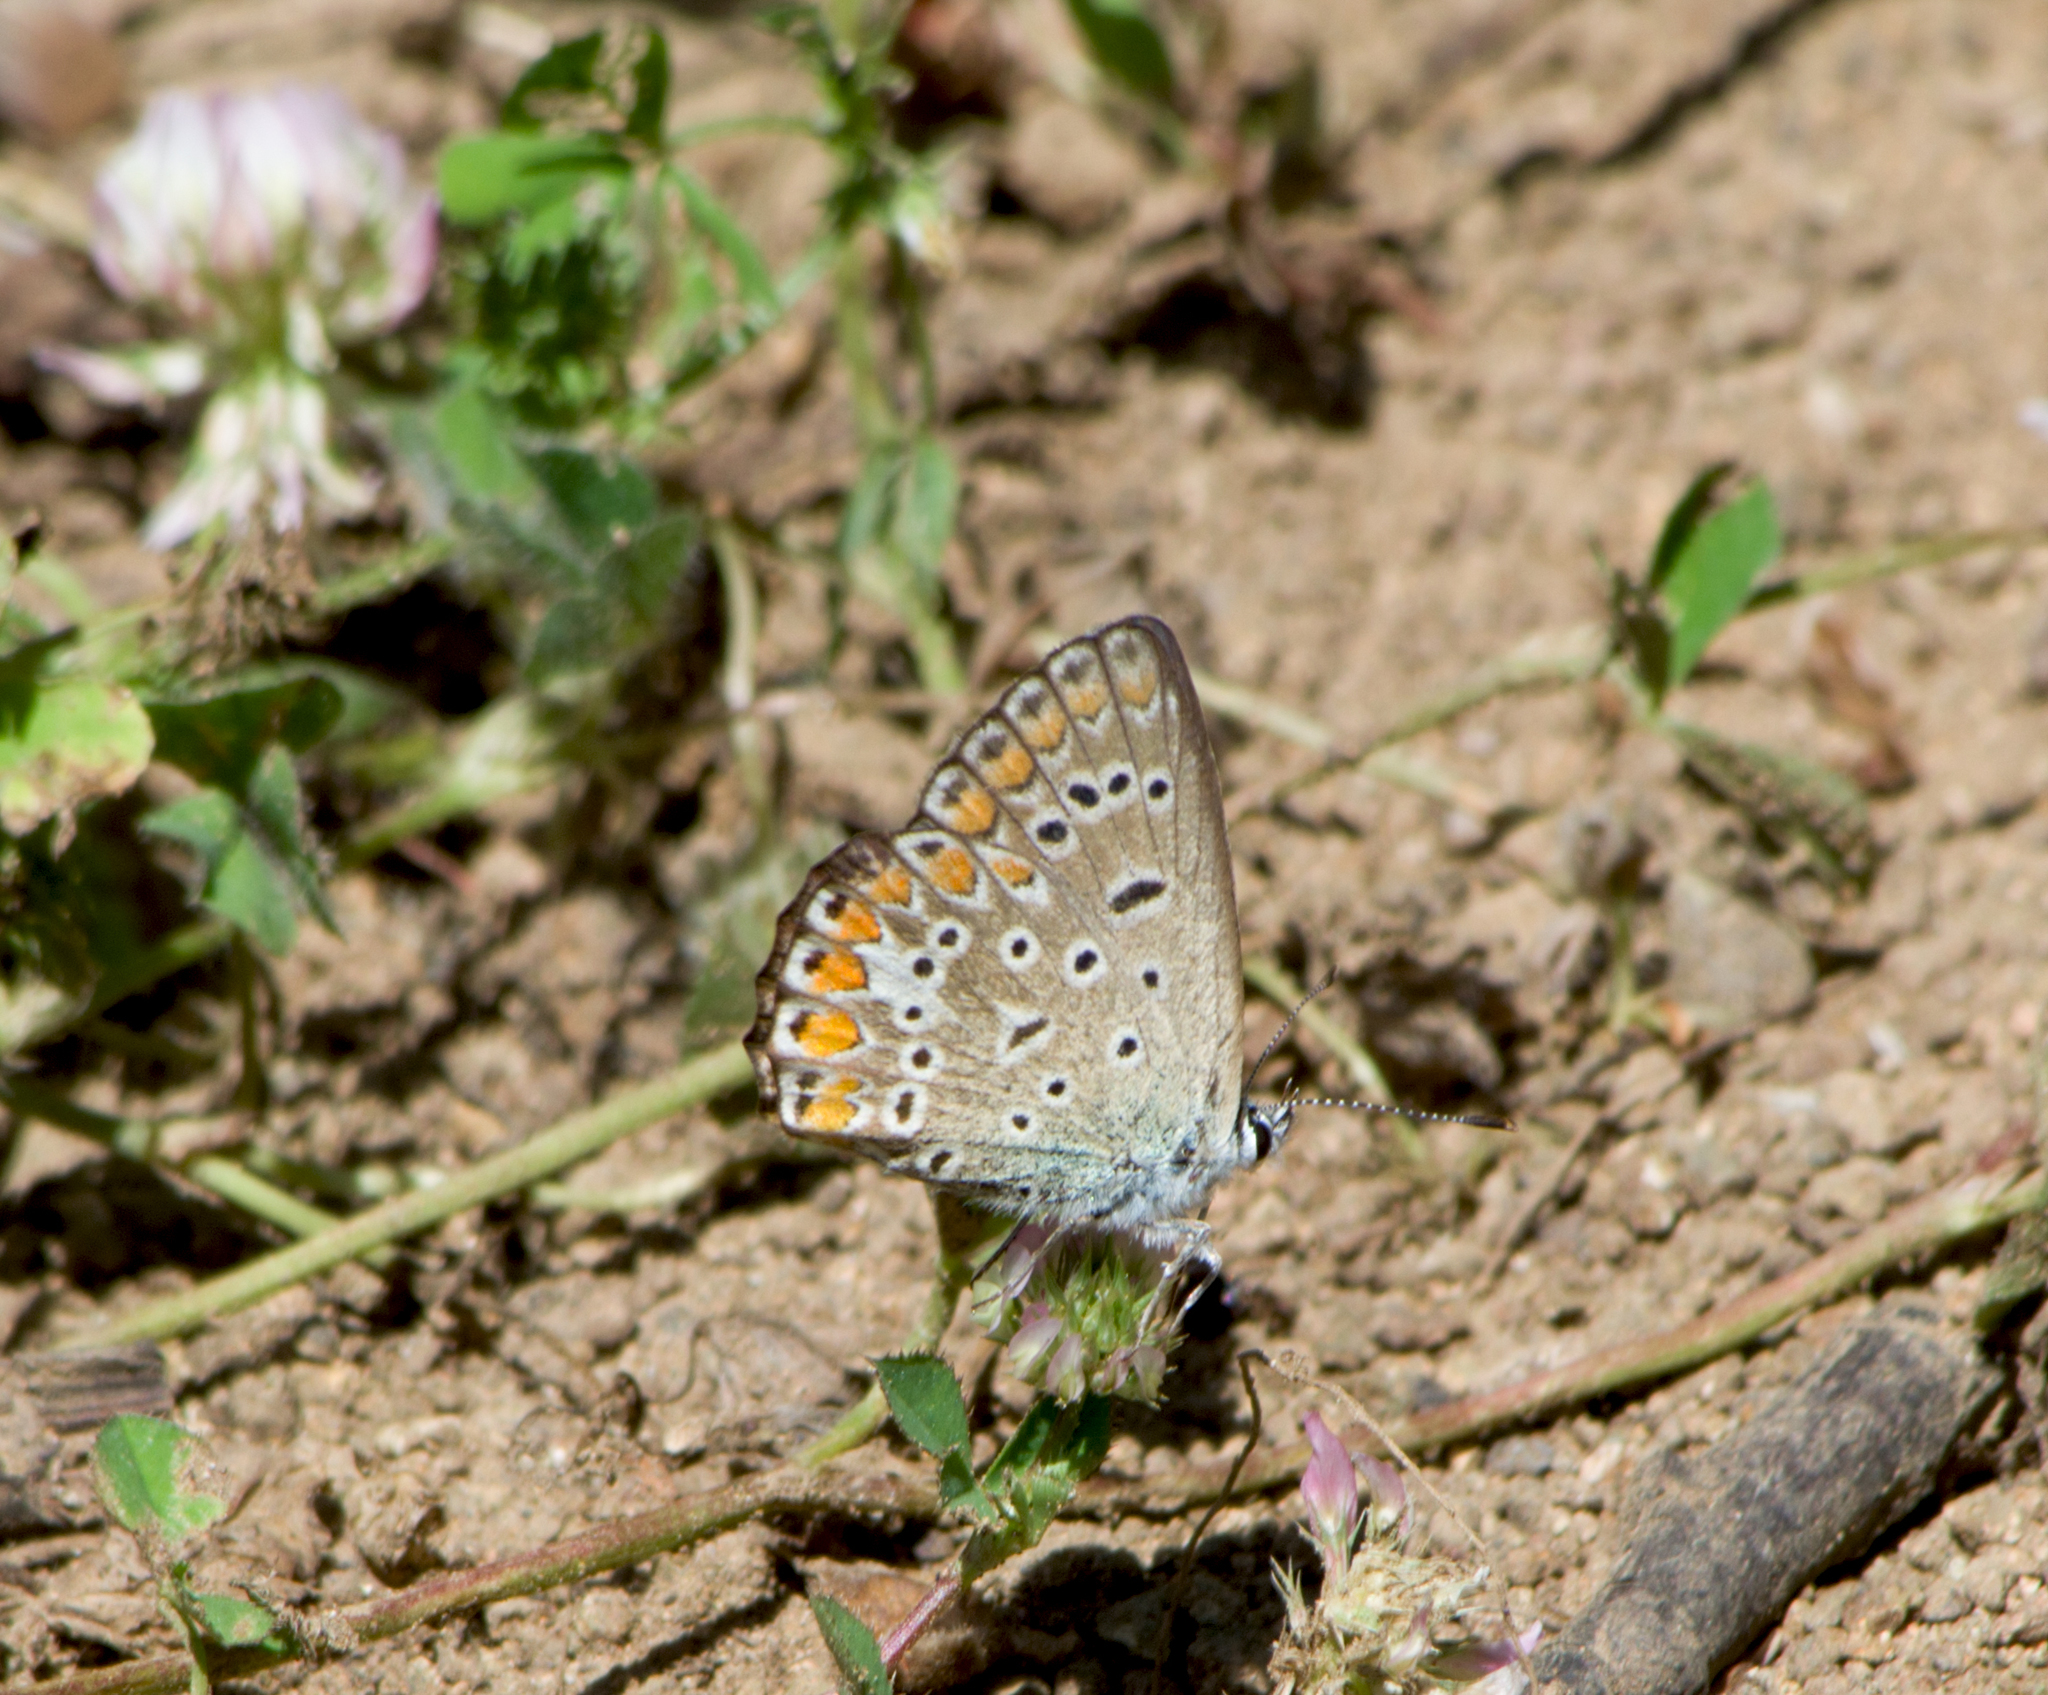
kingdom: Animalia
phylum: Arthropoda
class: Insecta
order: Lepidoptera
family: Lycaenidae
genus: Polyommatus
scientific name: Polyommatus icarus
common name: Common blue
